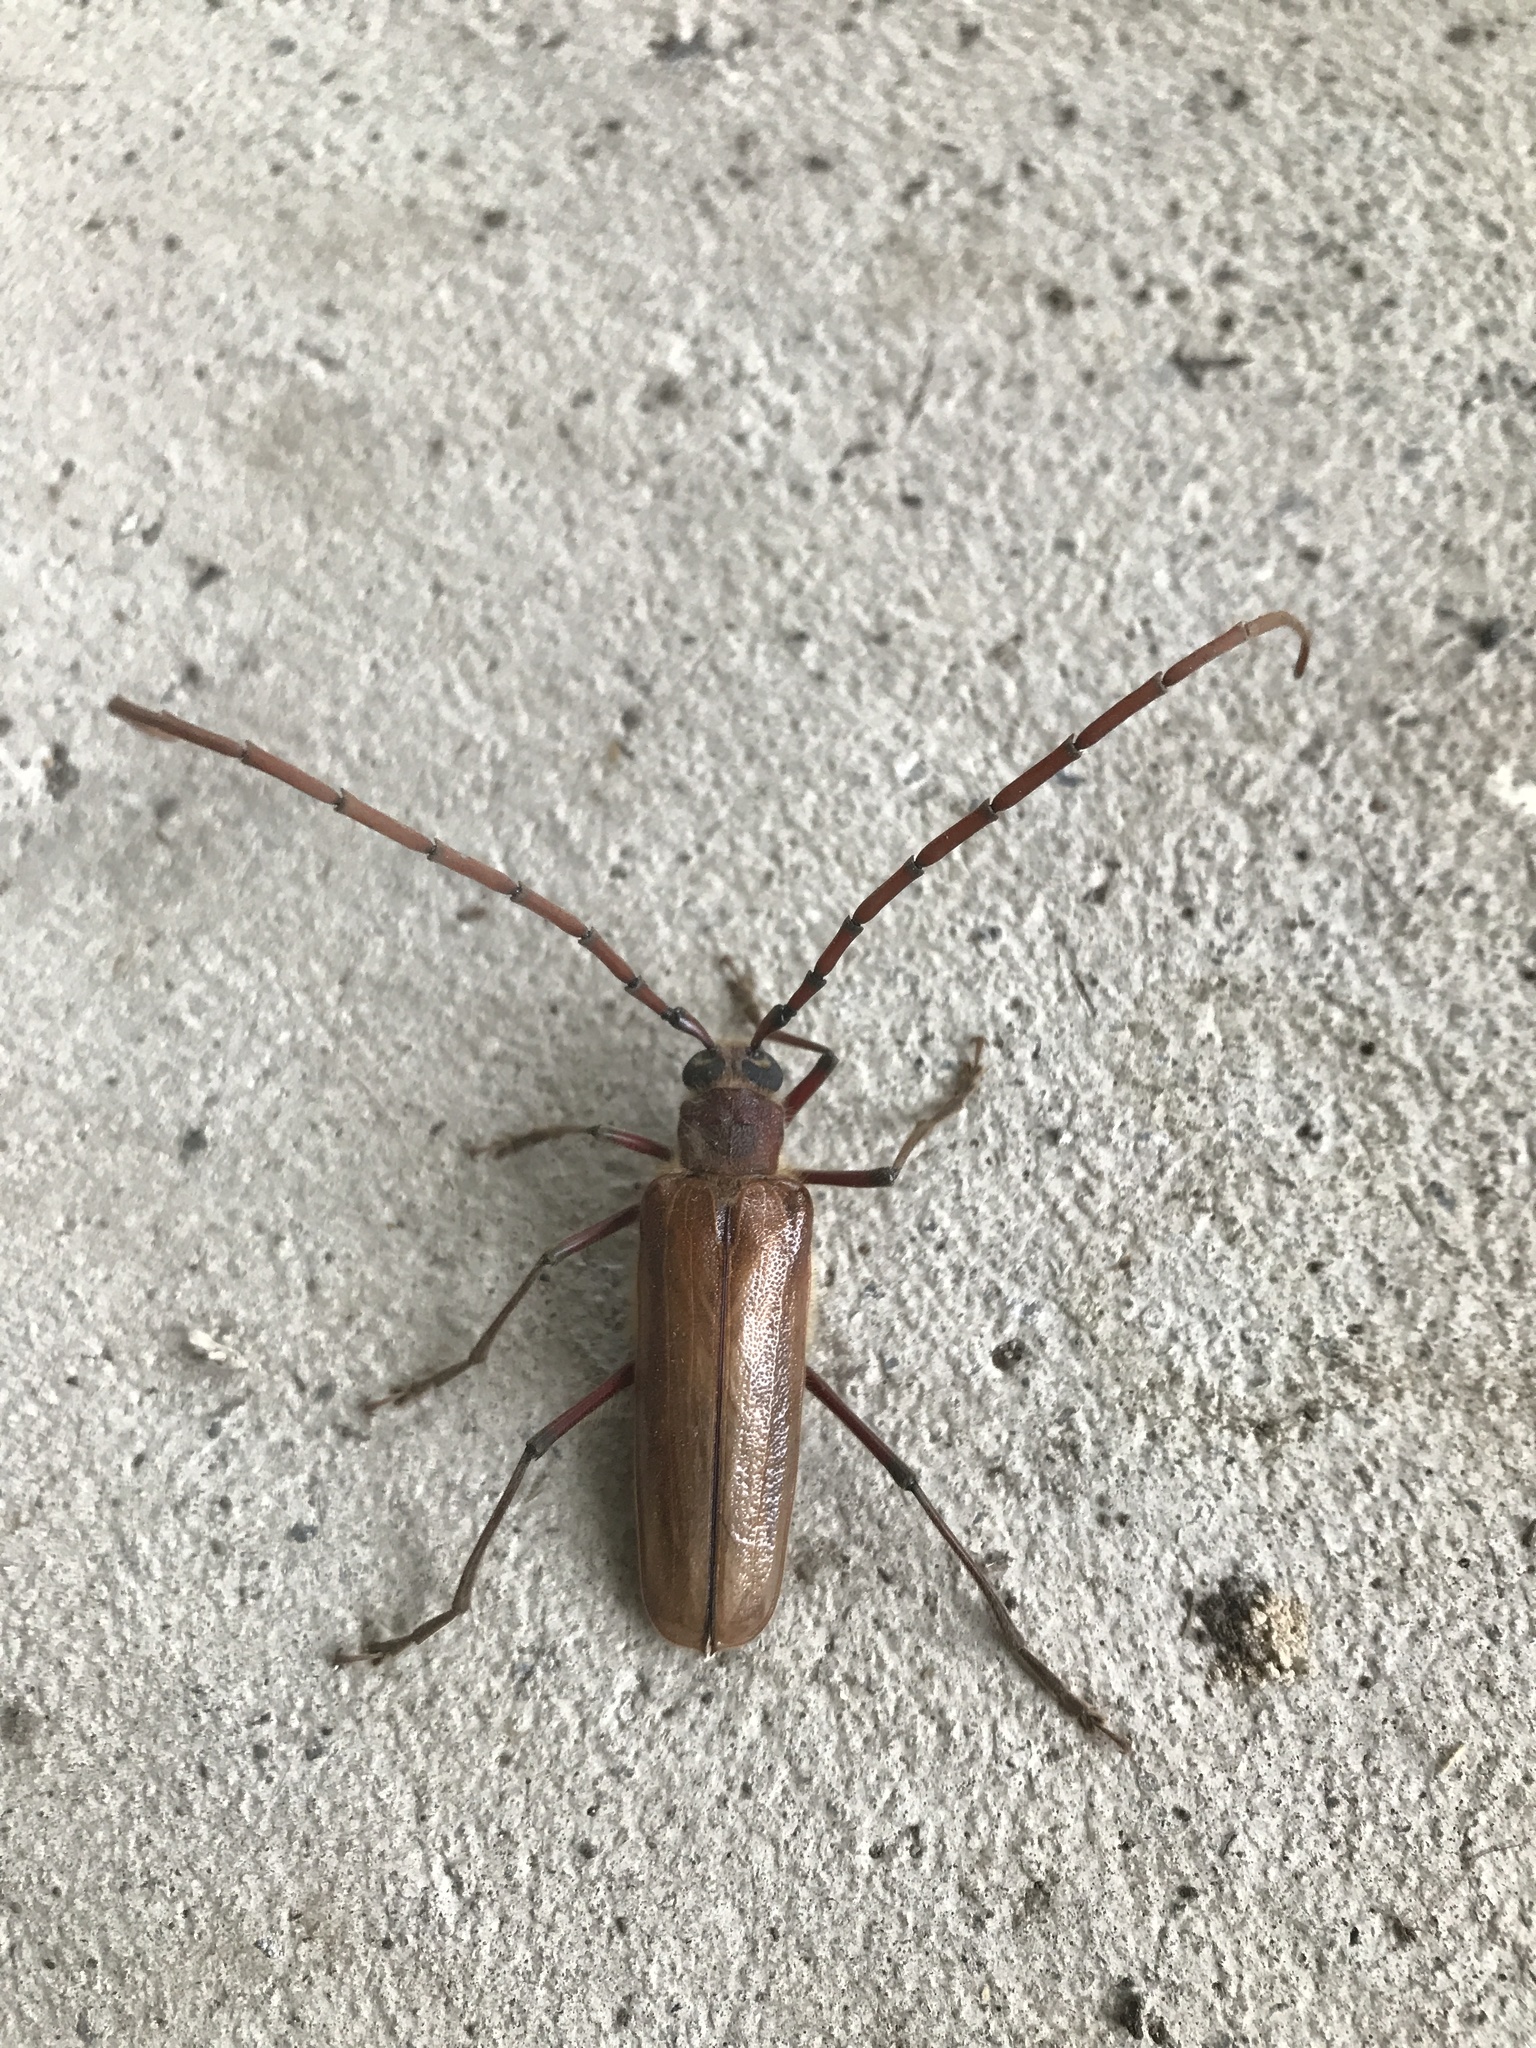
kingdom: Animalia
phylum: Arthropoda
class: Insecta
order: Coleoptera
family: Cerambycidae
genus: Ochrocydus
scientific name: Ochrocydus huttoni
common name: Kanuka longhorn
